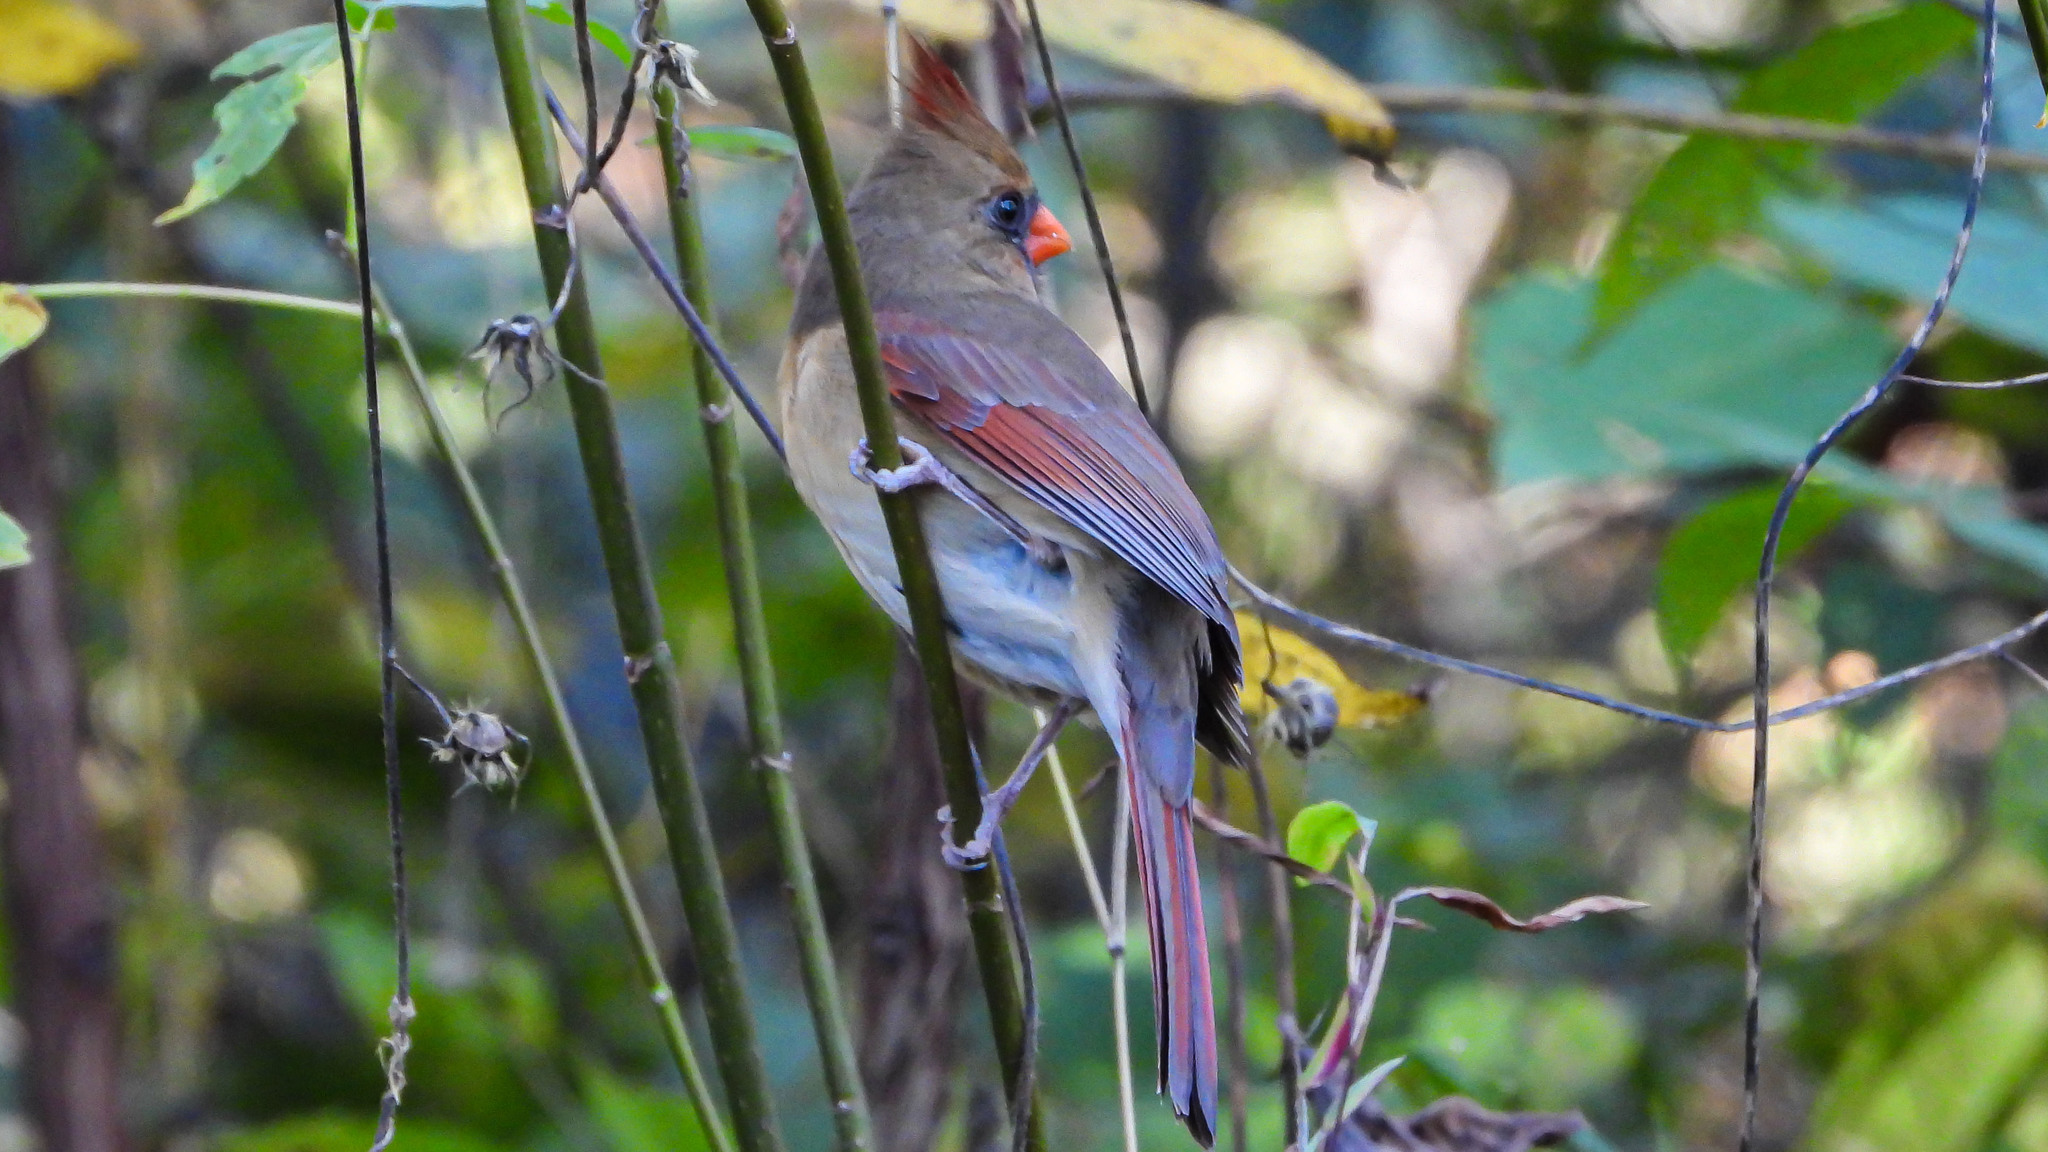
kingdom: Animalia
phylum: Chordata
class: Aves
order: Passeriformes
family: Cardinalidae
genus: Cardinalis
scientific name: Cardinalis cardinalis
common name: Northern cardinal
